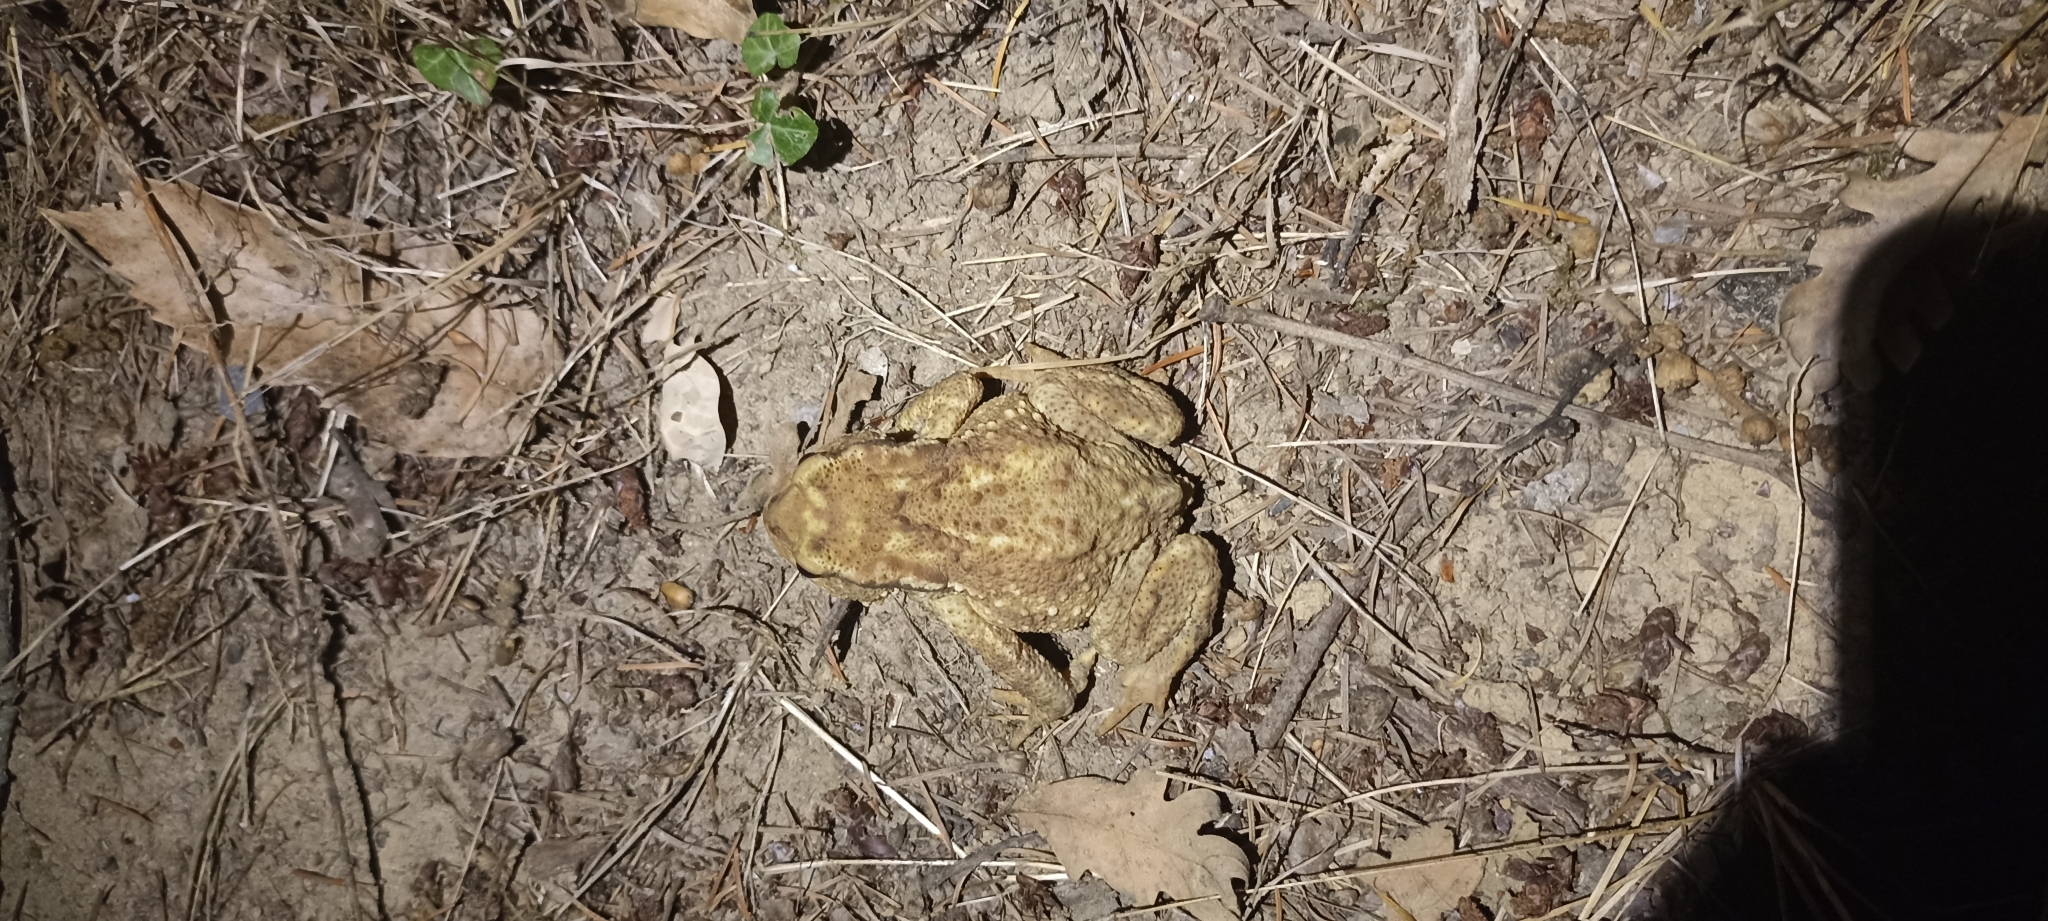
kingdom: Animalia
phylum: Chordata
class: Amphibia
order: Anura
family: Bufonidae
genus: Bufo
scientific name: Bufo spinosus
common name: Western common toad
